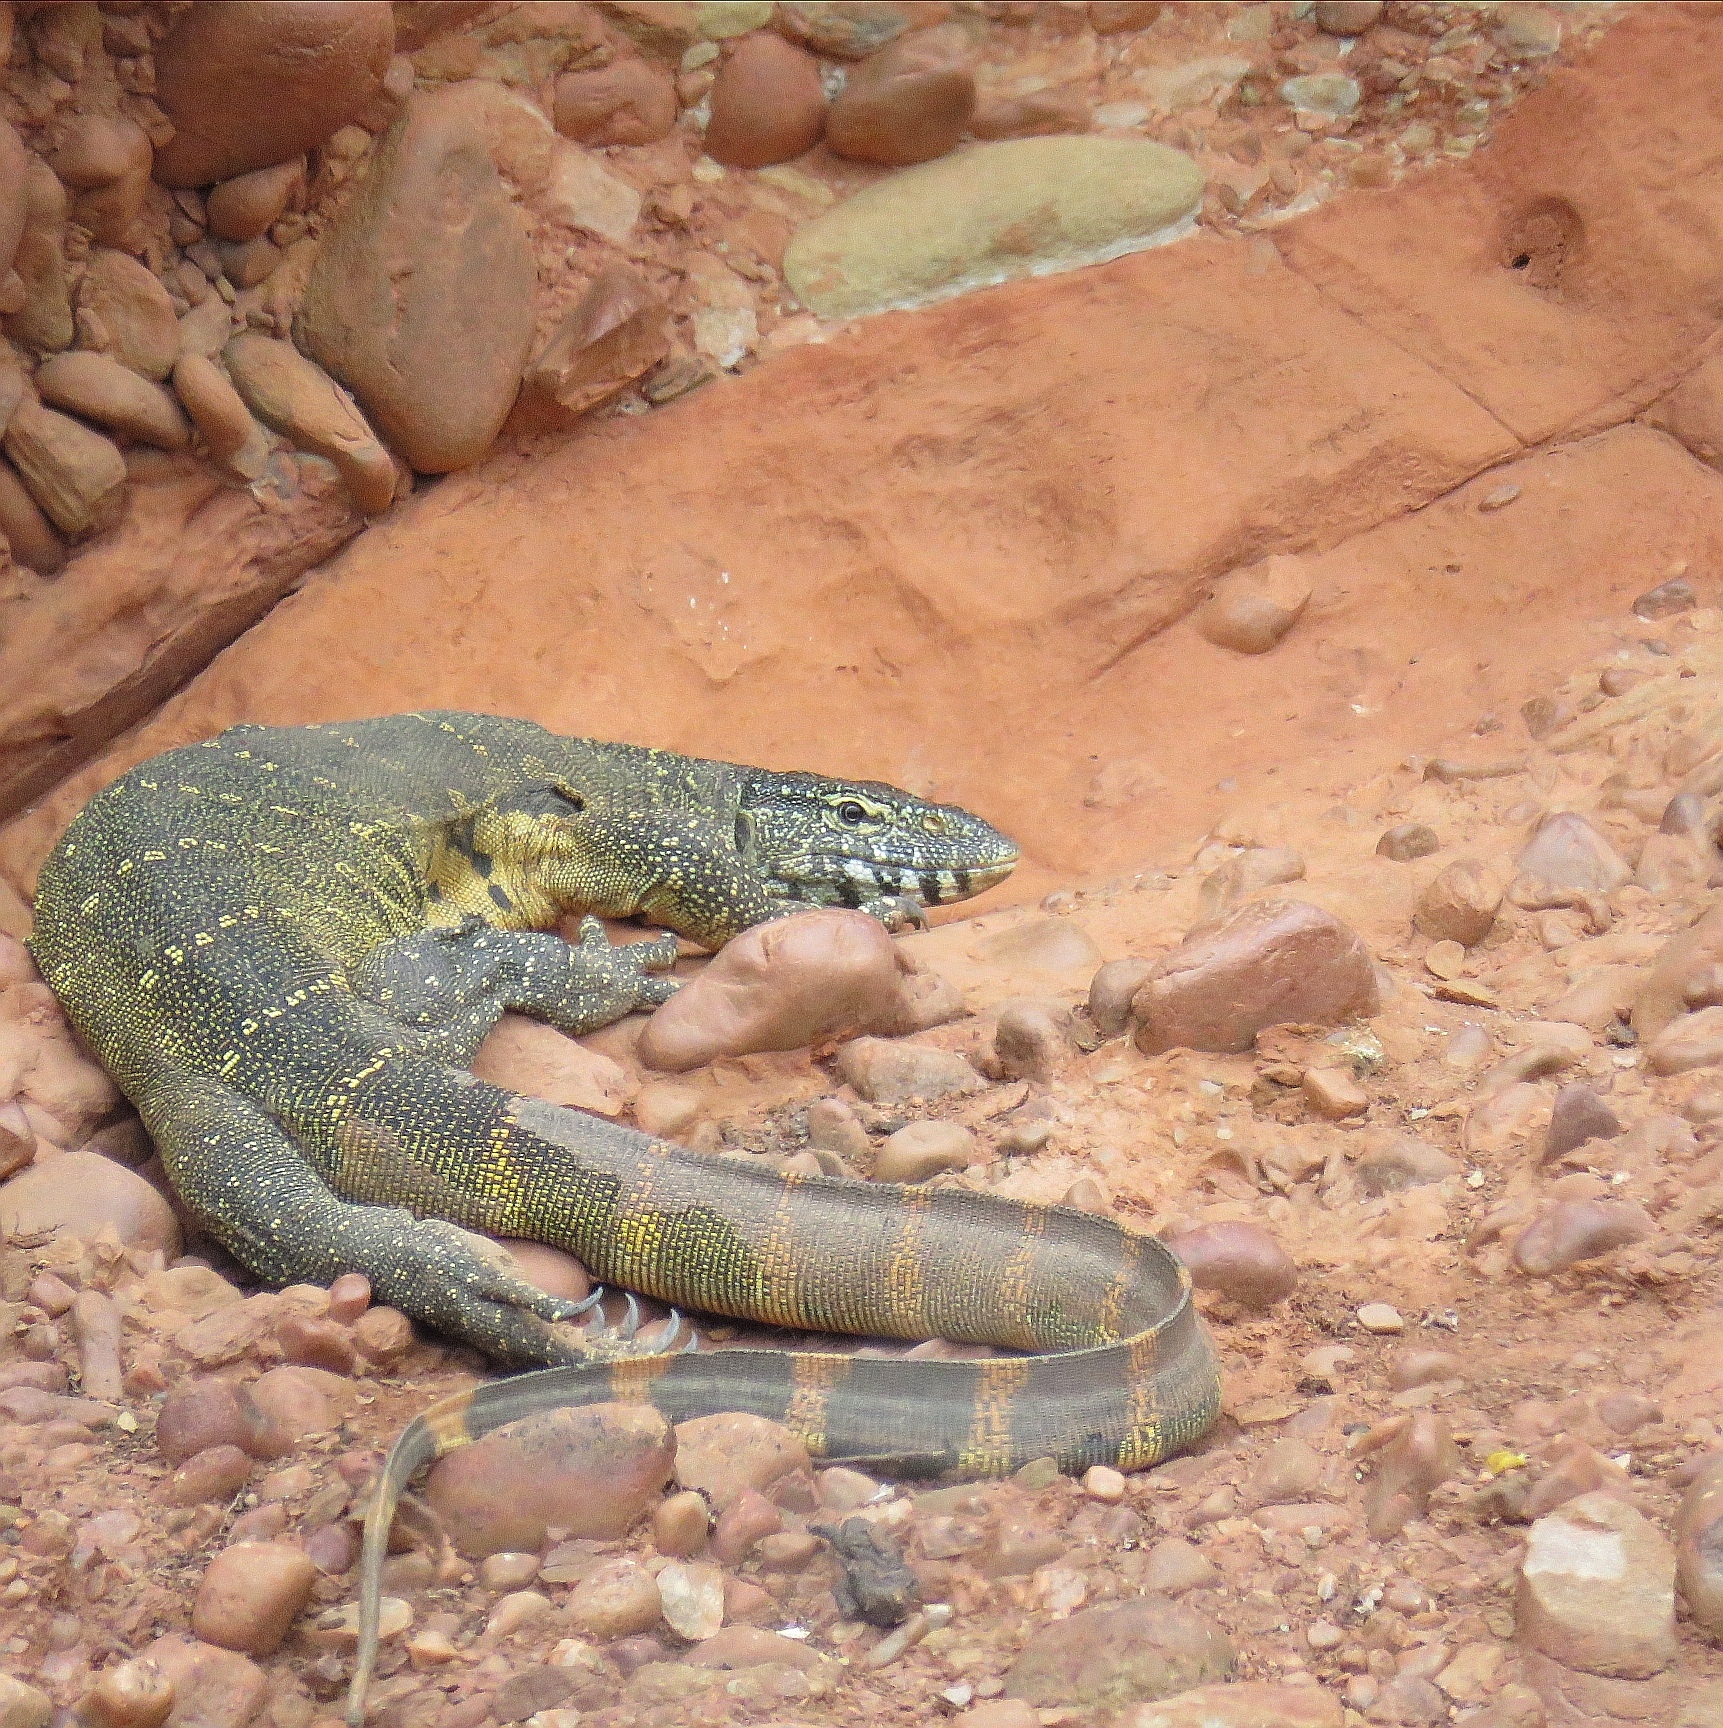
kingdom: Animalia
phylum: Chordata
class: Squamata
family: Varanidae
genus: Varanus
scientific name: Varanus niloticus
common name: Nile monitor
